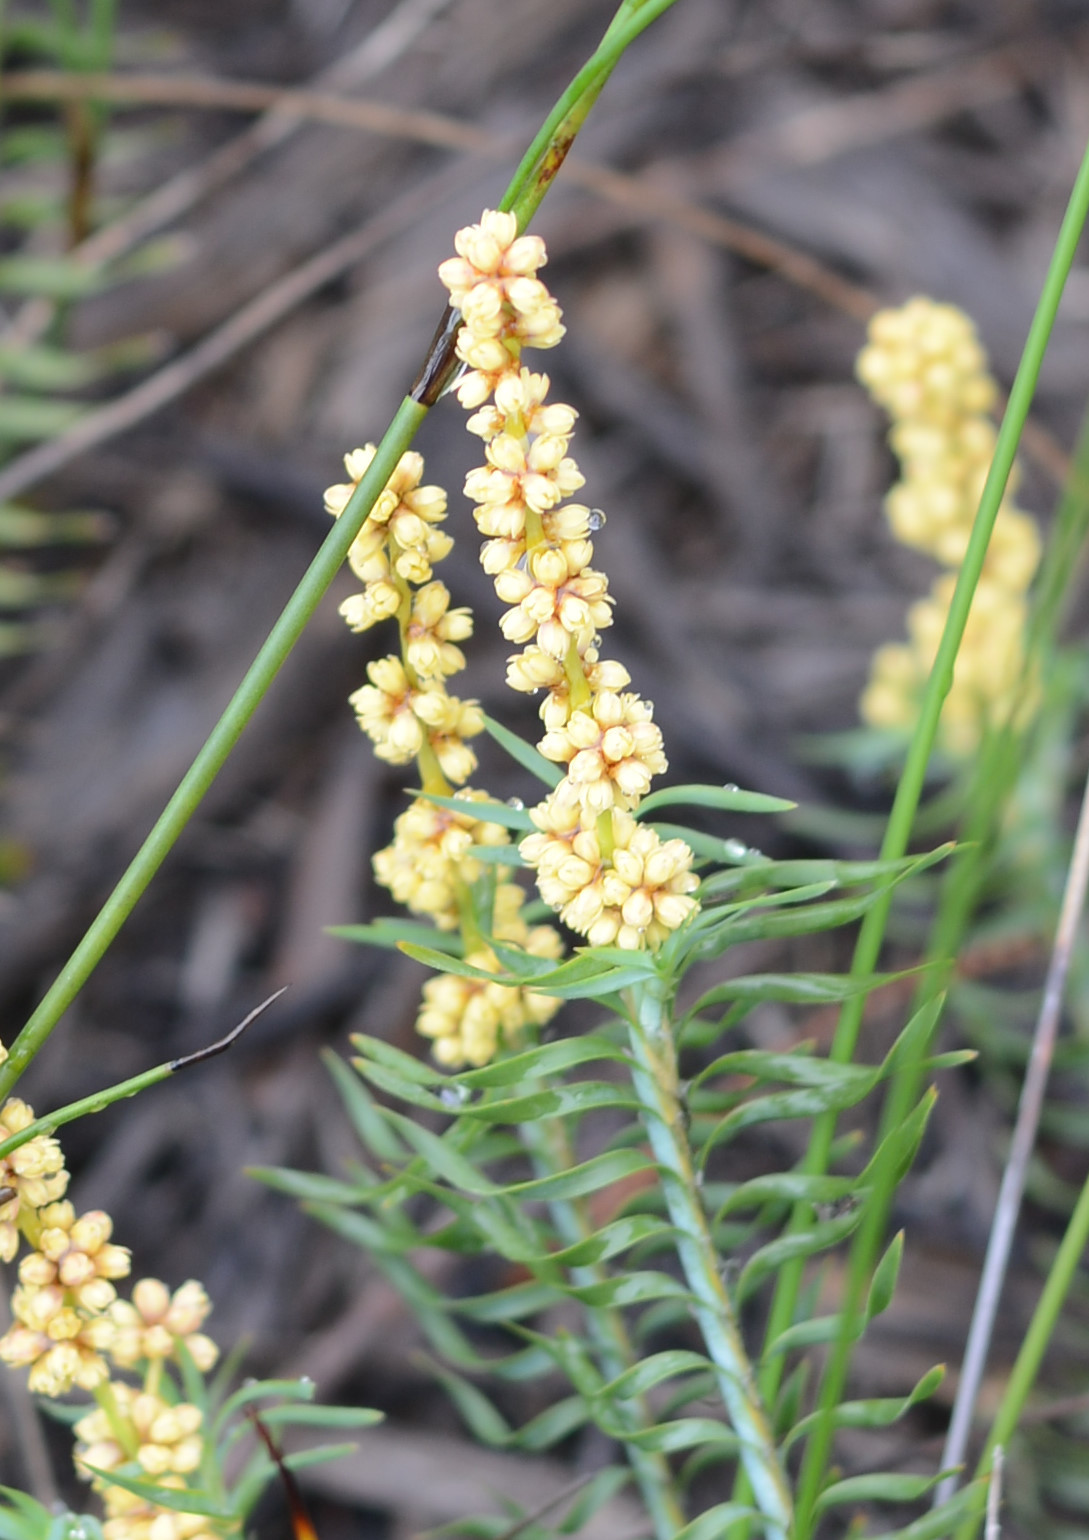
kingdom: Plantae
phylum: Tracheophyta
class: Liliopsida
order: Asparagales
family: Asparagaceae
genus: Lomandra
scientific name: Lomandra obliqua
